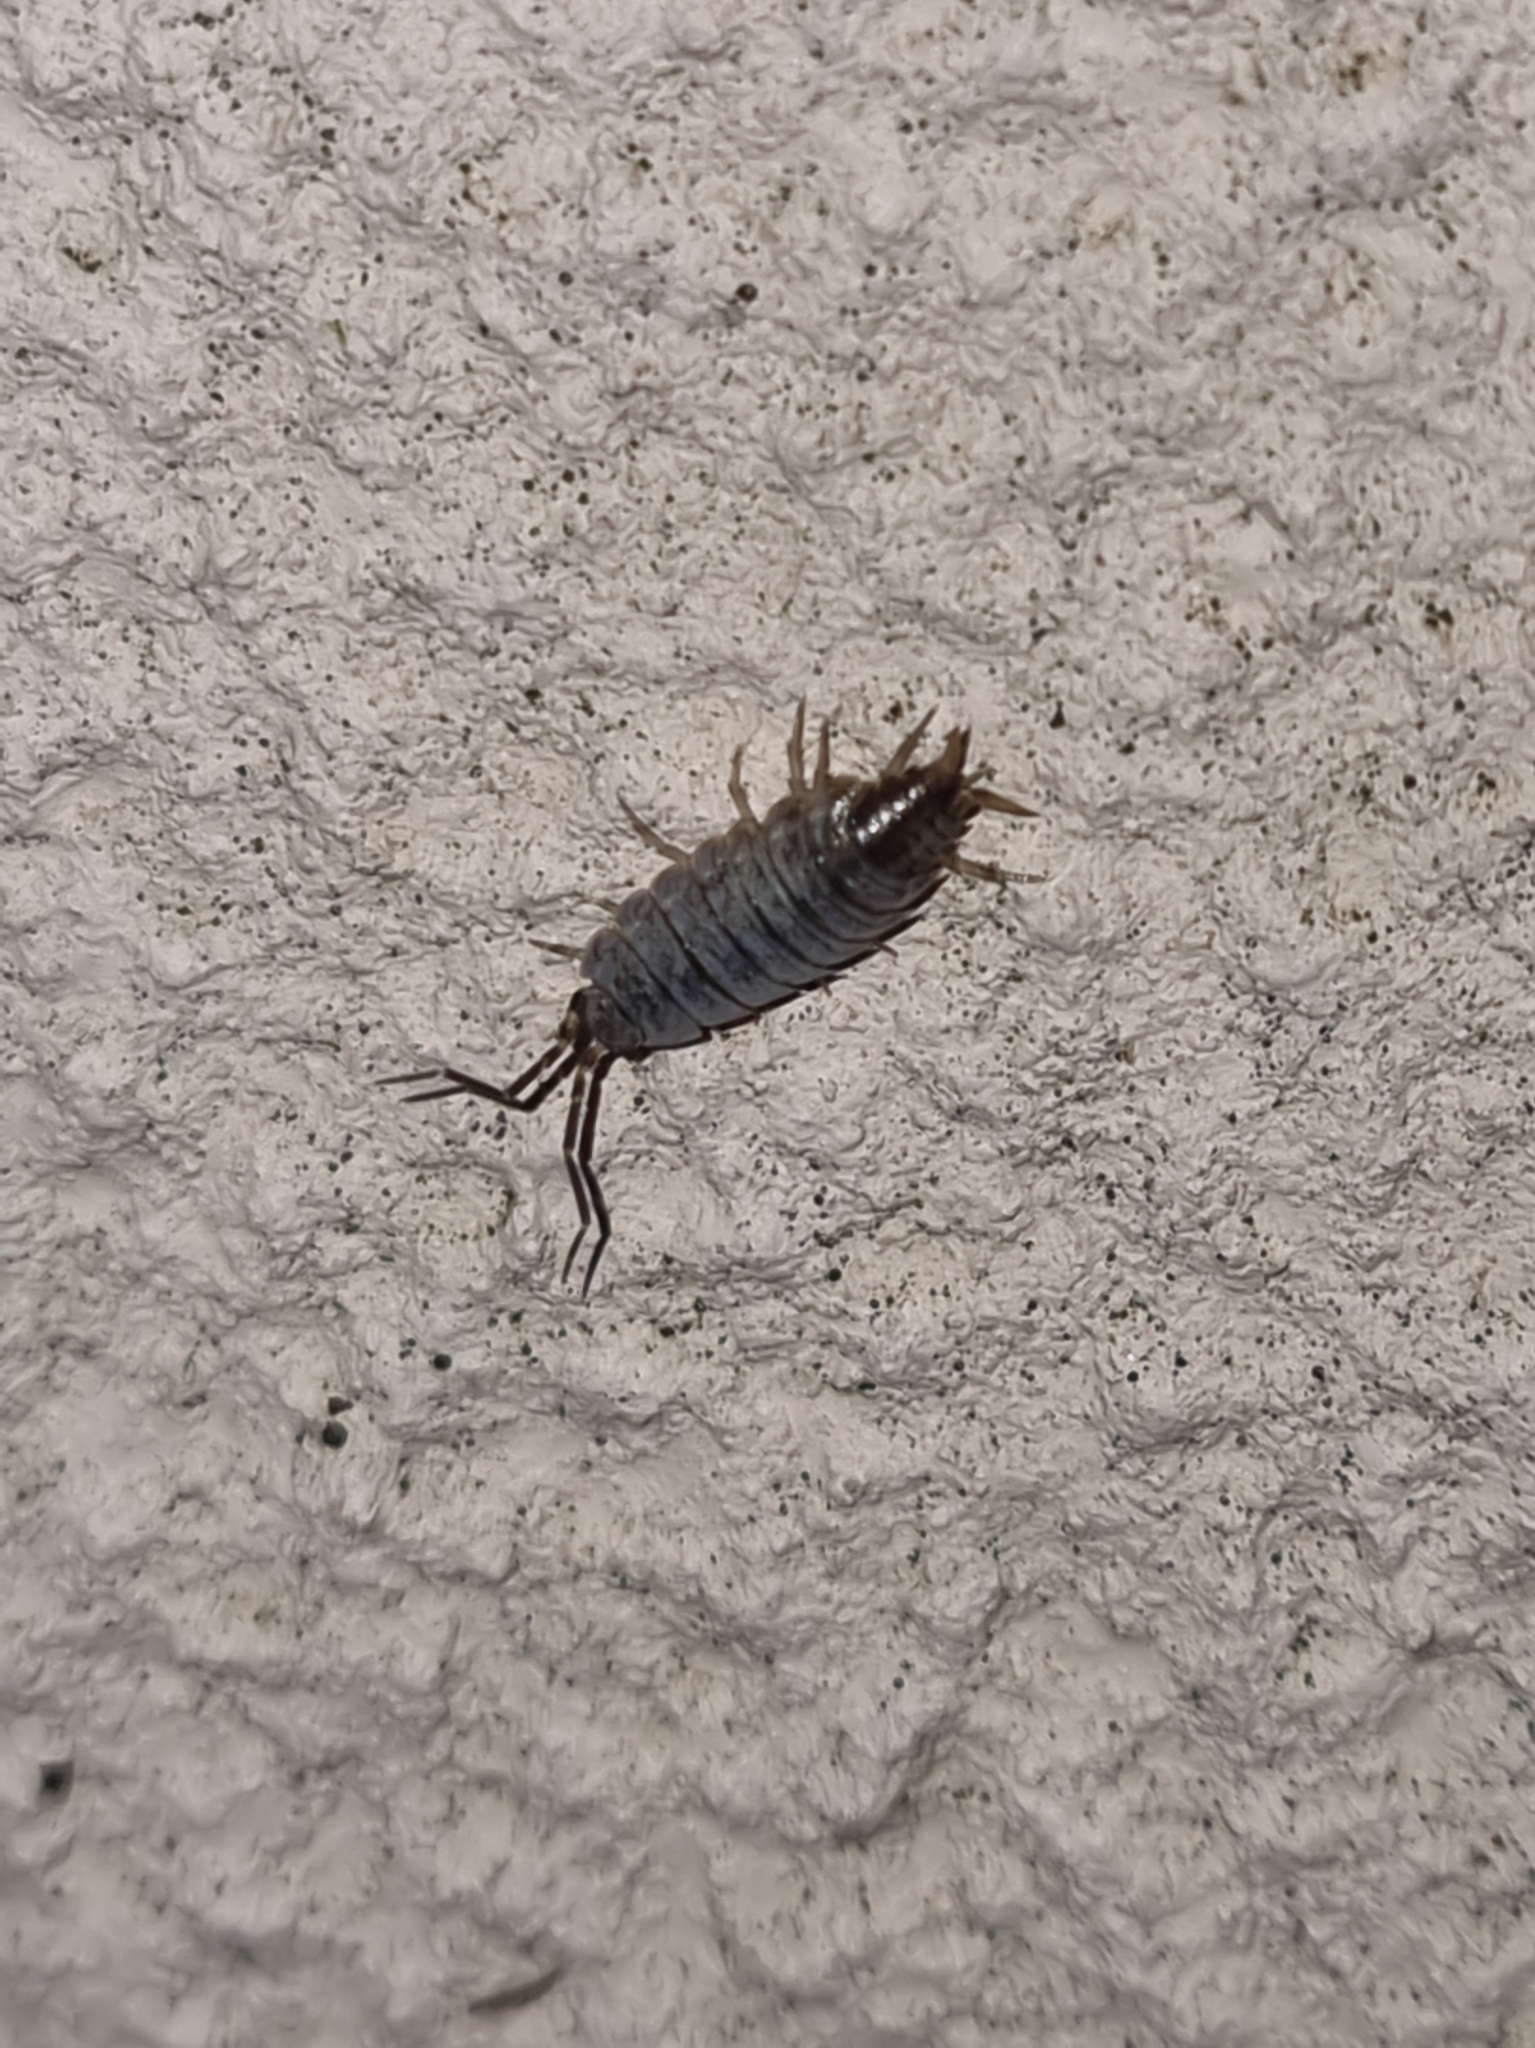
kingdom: Animalia
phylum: Arthropoda
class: Malacostraca
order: Isopoda
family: Porcellionidae
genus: Porcellionides
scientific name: Porcellionides pruinosus
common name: Plum woodlouse
